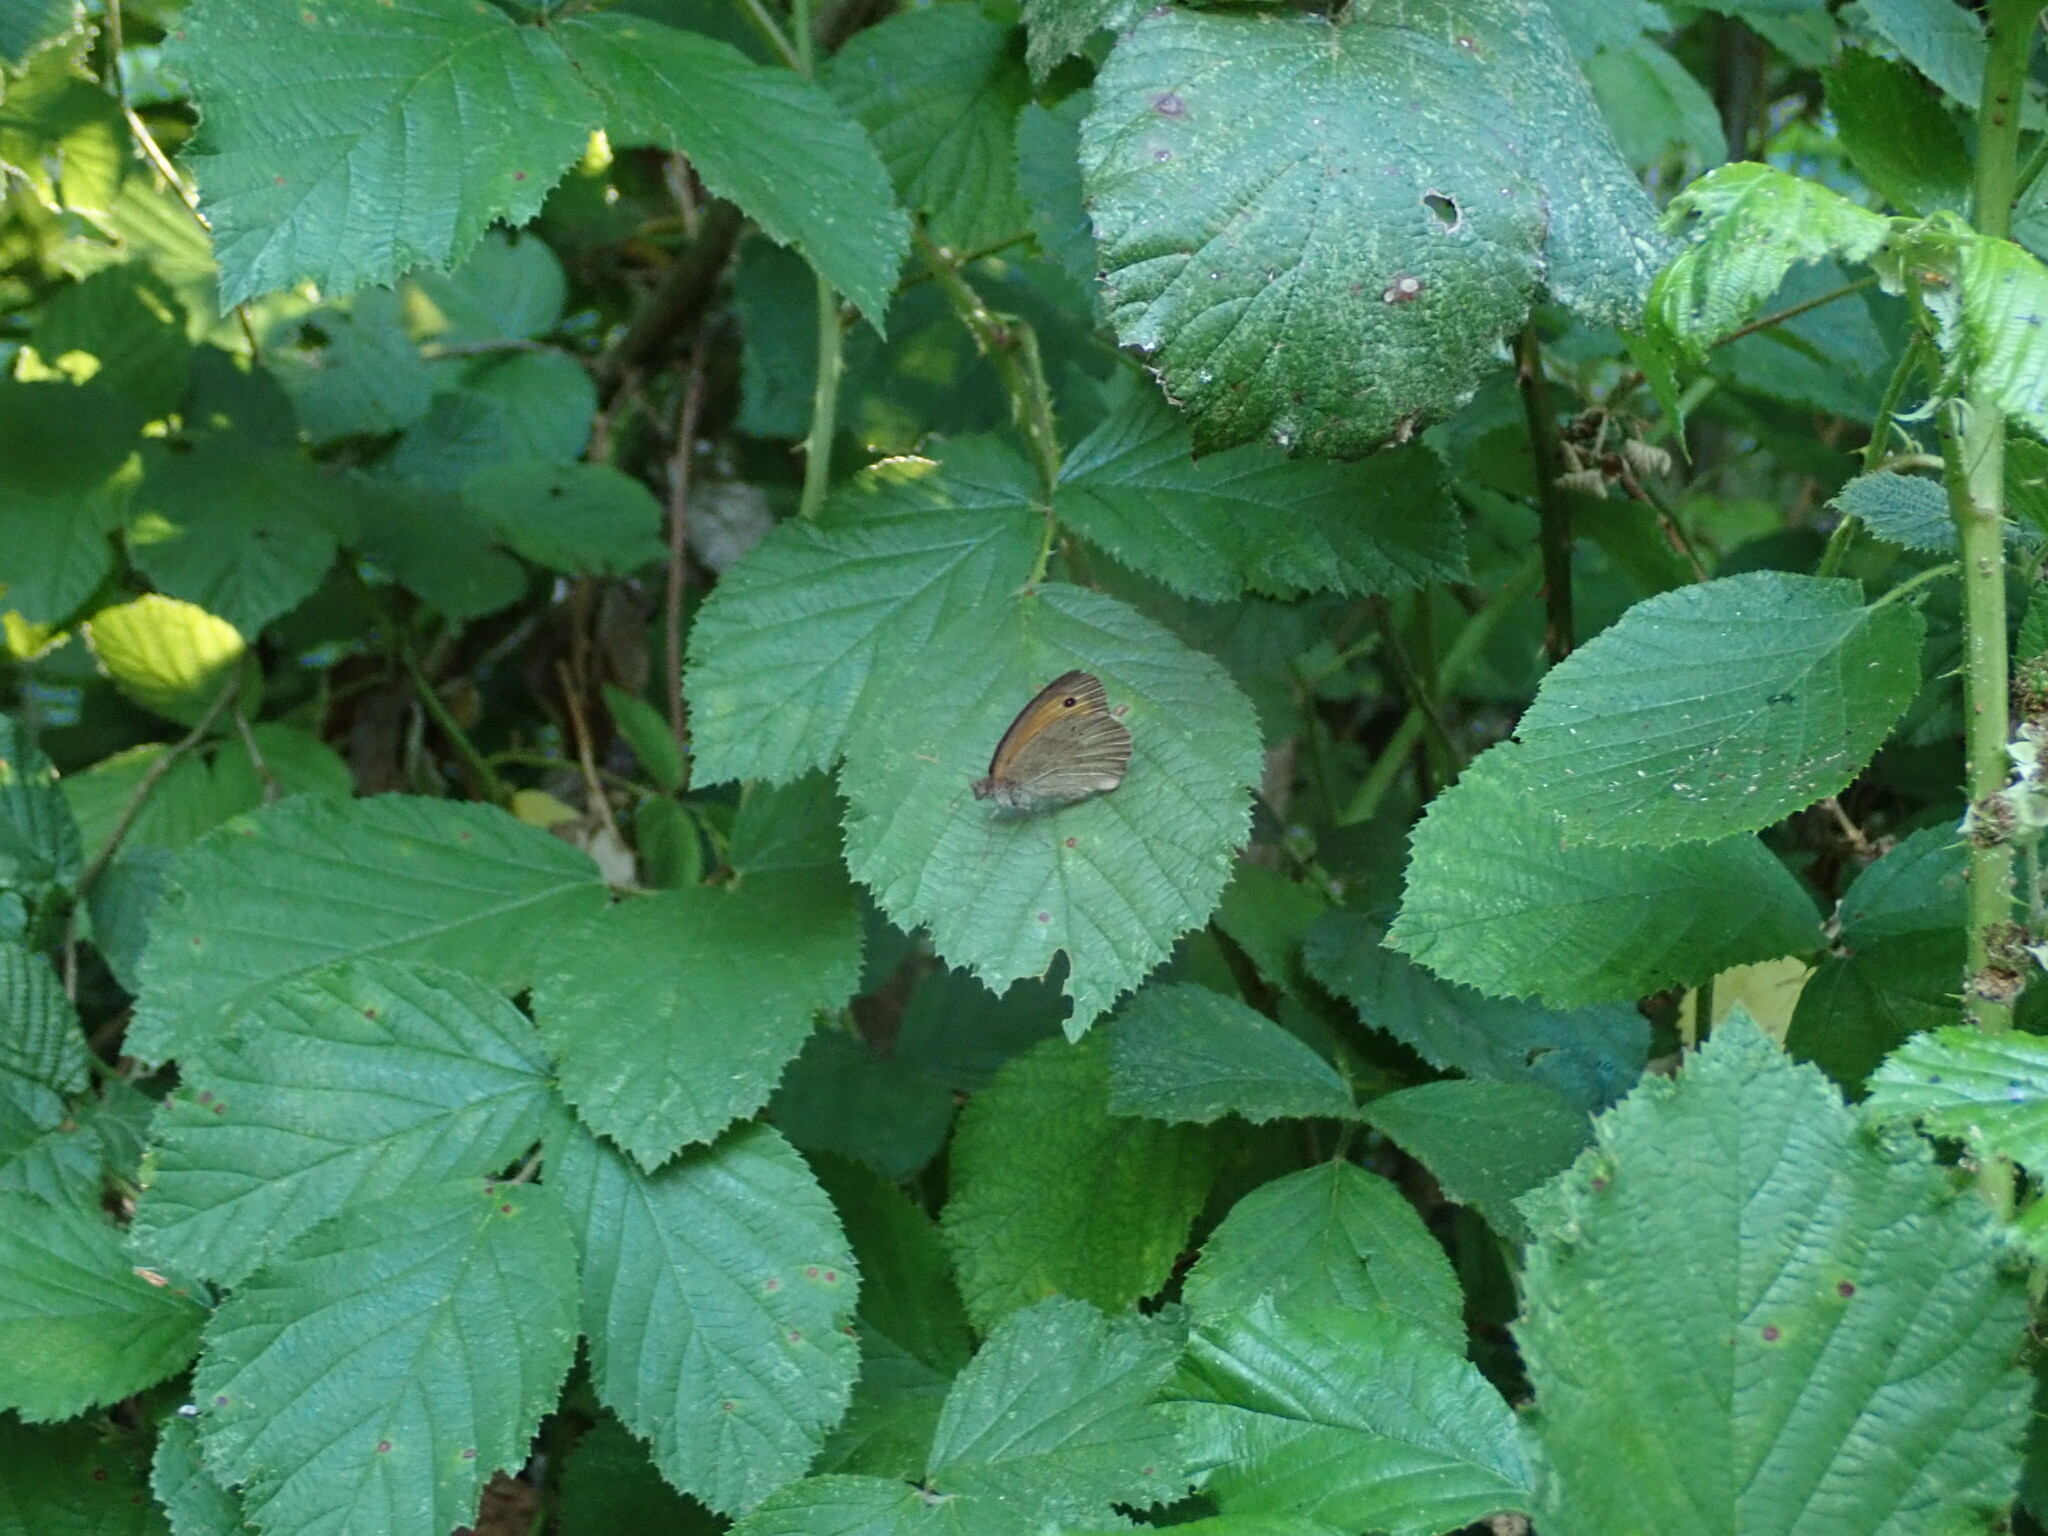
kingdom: Animalia
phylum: Arthropoda
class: Insecta
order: Lepidoptera
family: Nymphalidae
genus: Maniola
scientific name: Maniola jurtina
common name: Meadow brown
